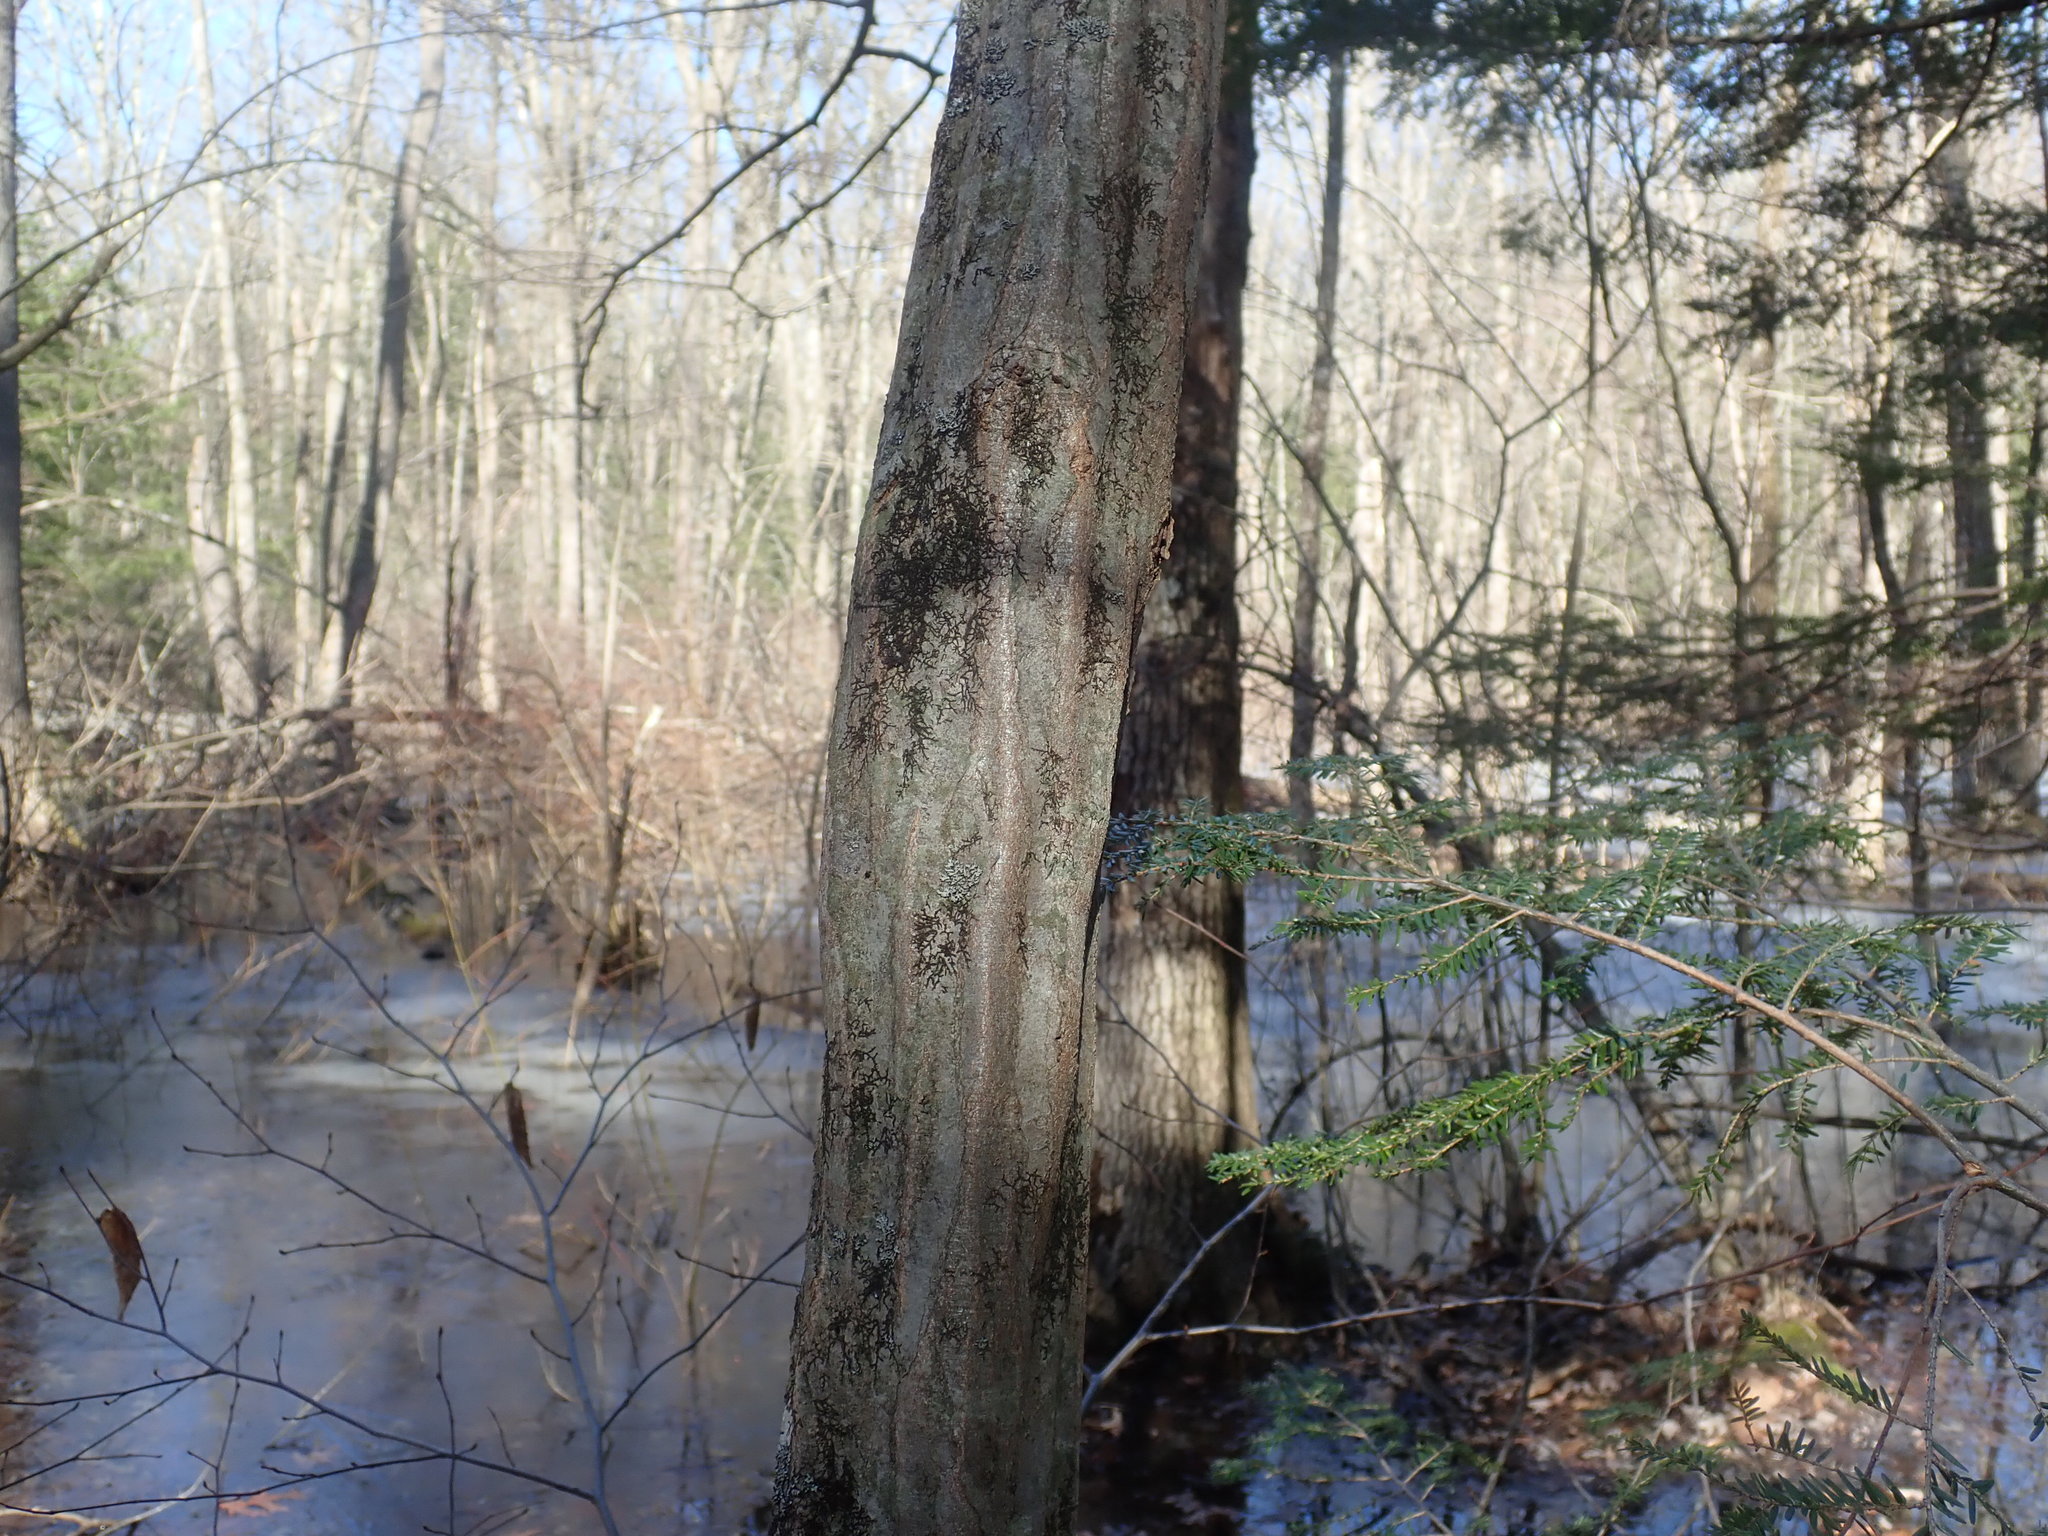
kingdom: Plantae
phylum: Tracheophyta
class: Magnoliopsida
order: Fagales
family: Betulaceae
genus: Carpinus
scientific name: Carpinus caroliniana
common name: American hornbeam
